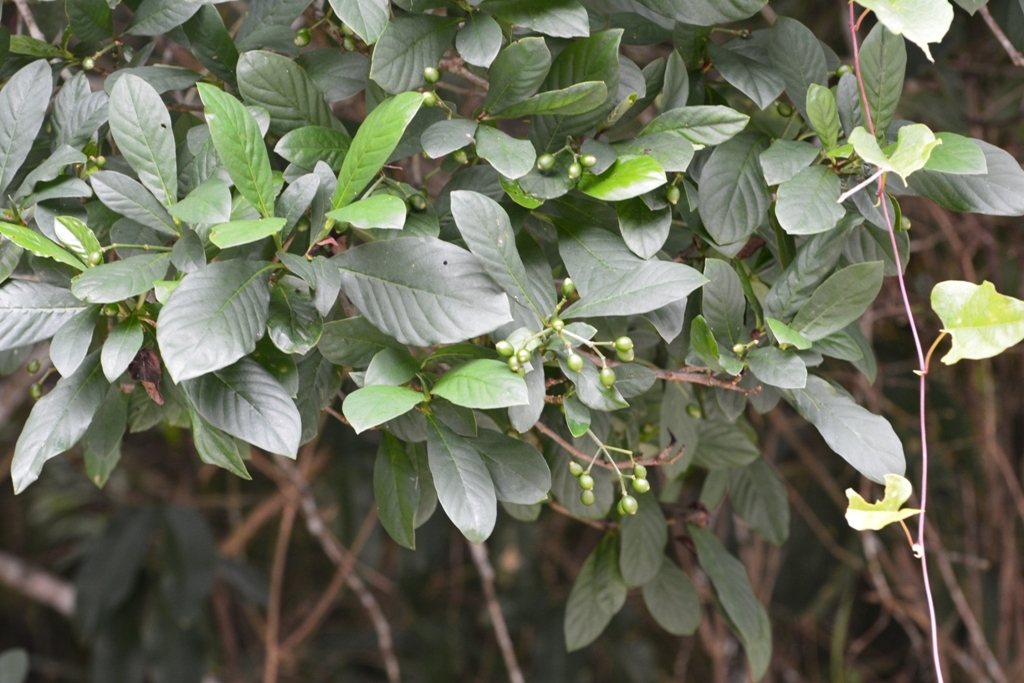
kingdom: Plantae
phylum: Tracheophyta
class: Magnoliopsida
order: Gentianales
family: Rubiaceae
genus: Psychotria
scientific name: Psychotria erythrocarpa
